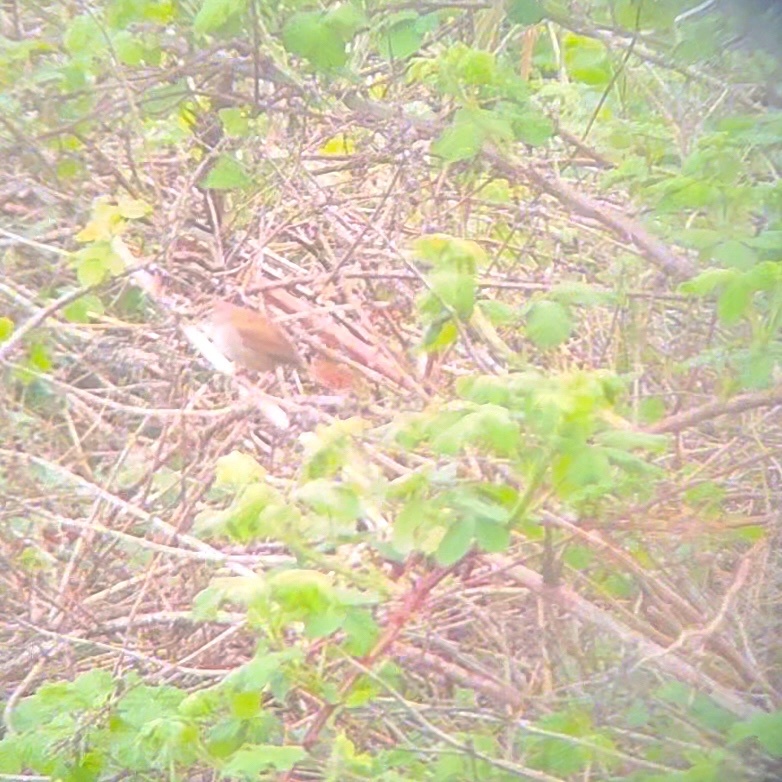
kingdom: Animalia
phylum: Chordata
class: Aves
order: Passeriformes
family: Cettiidae
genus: Cettia
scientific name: Cettia cetti
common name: Cetti's warbler
